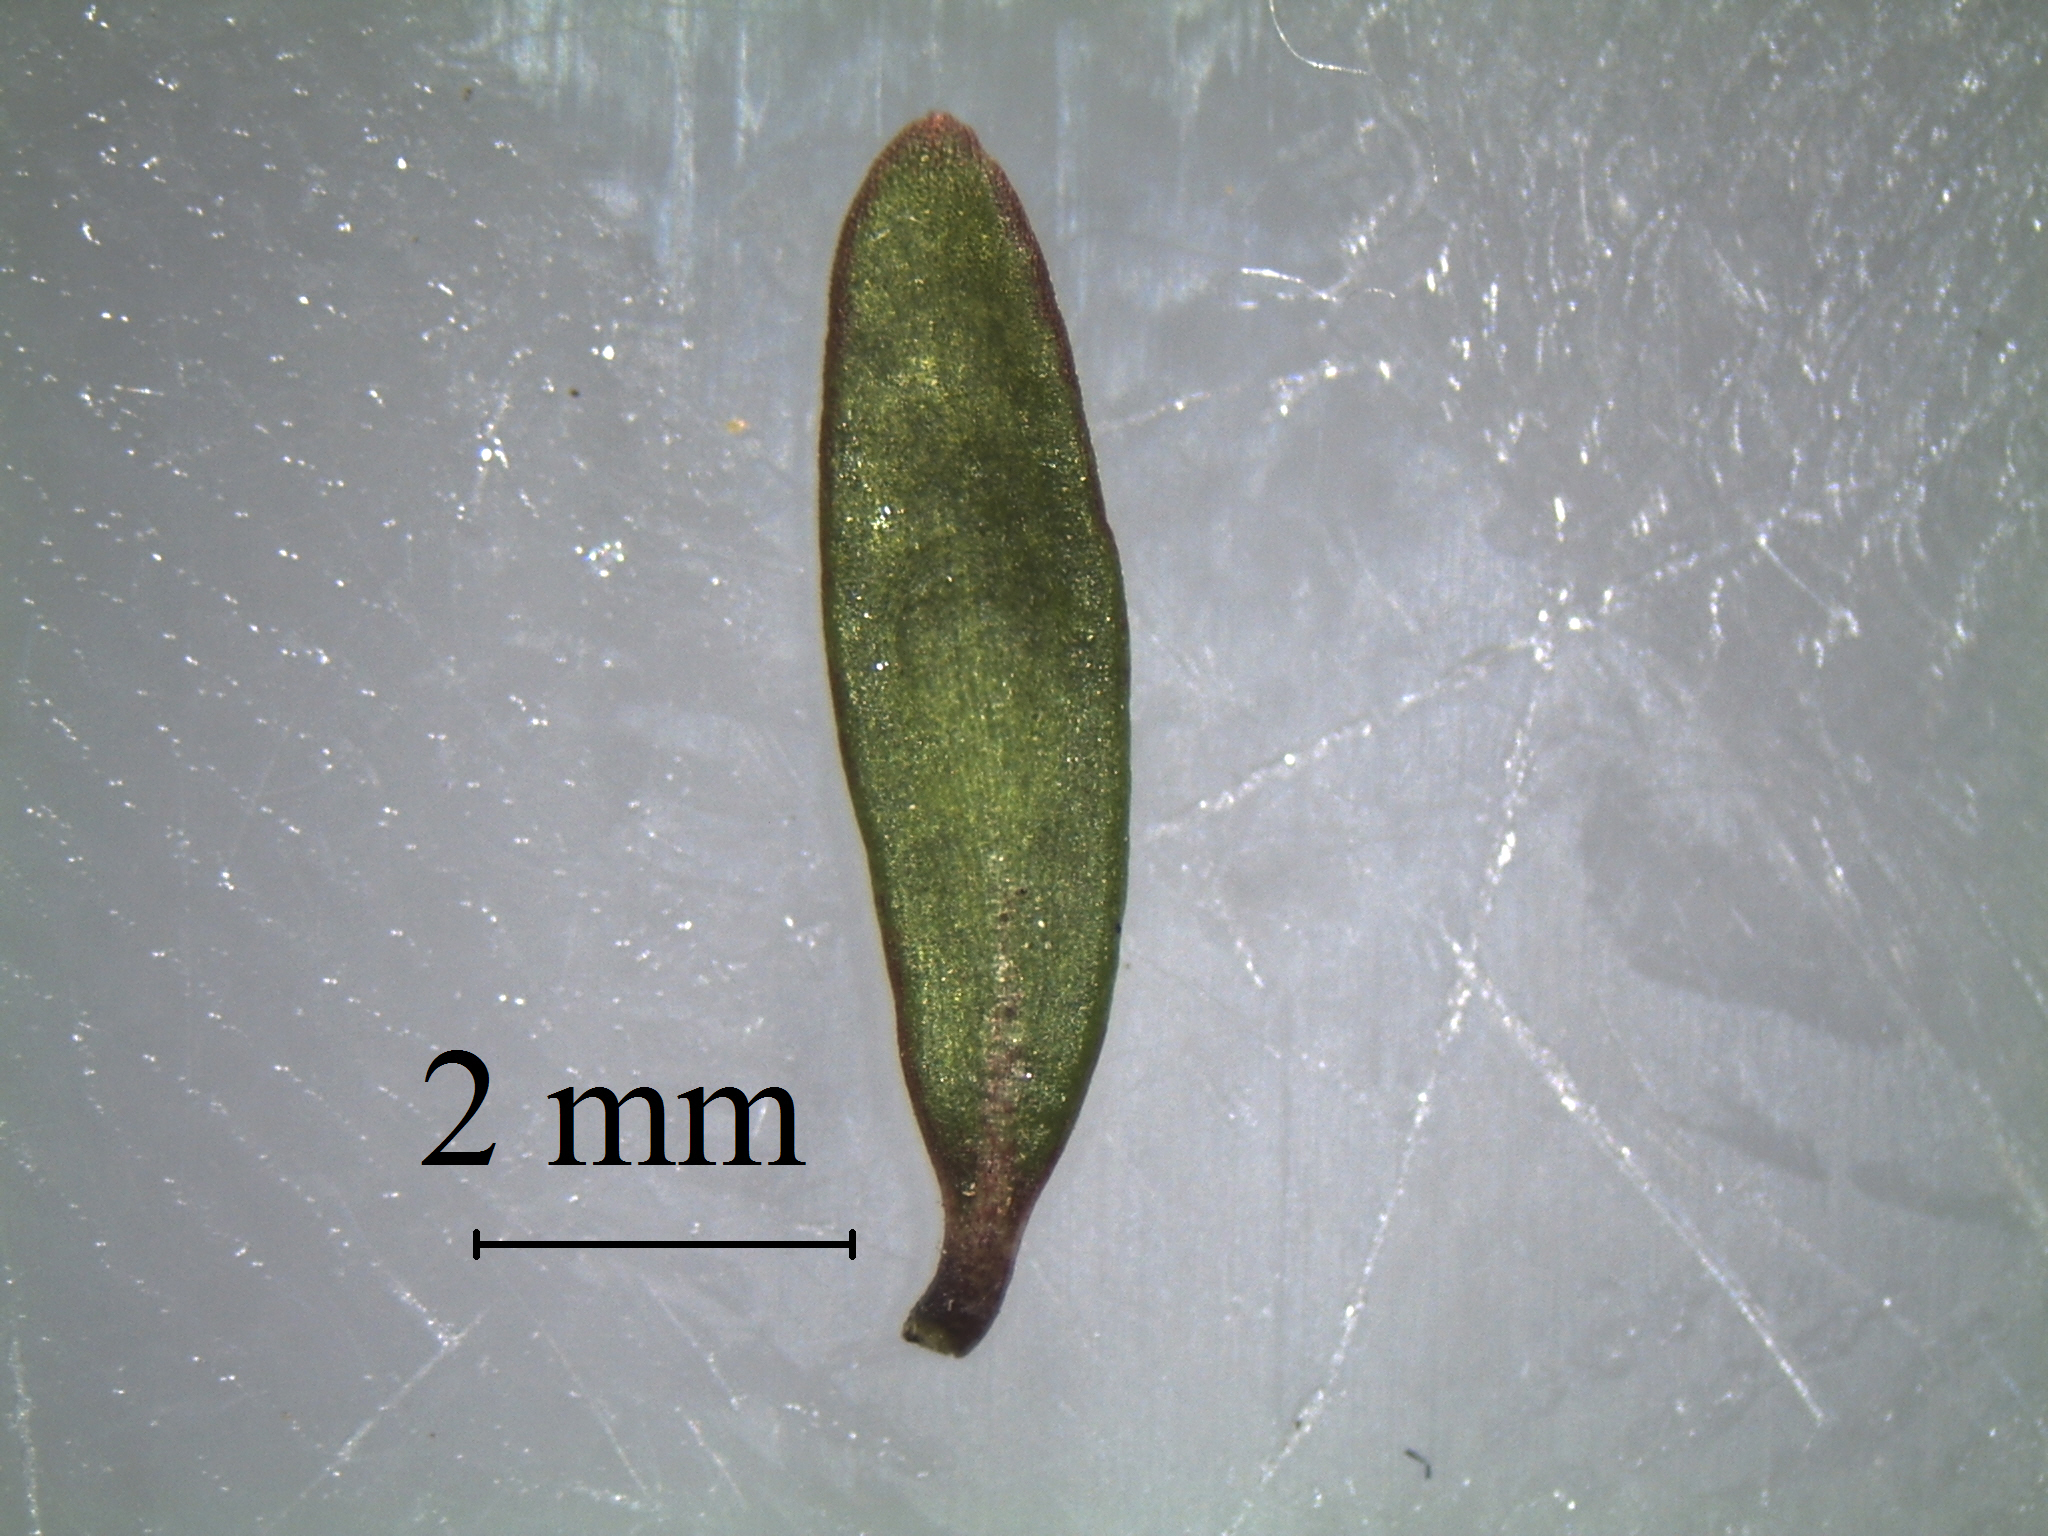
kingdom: Plantae
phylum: Tracheophyta
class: Magnoliopsida
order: Gentianales
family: Rubiaceae
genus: Coprosma
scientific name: Coprosma cheesemanii
